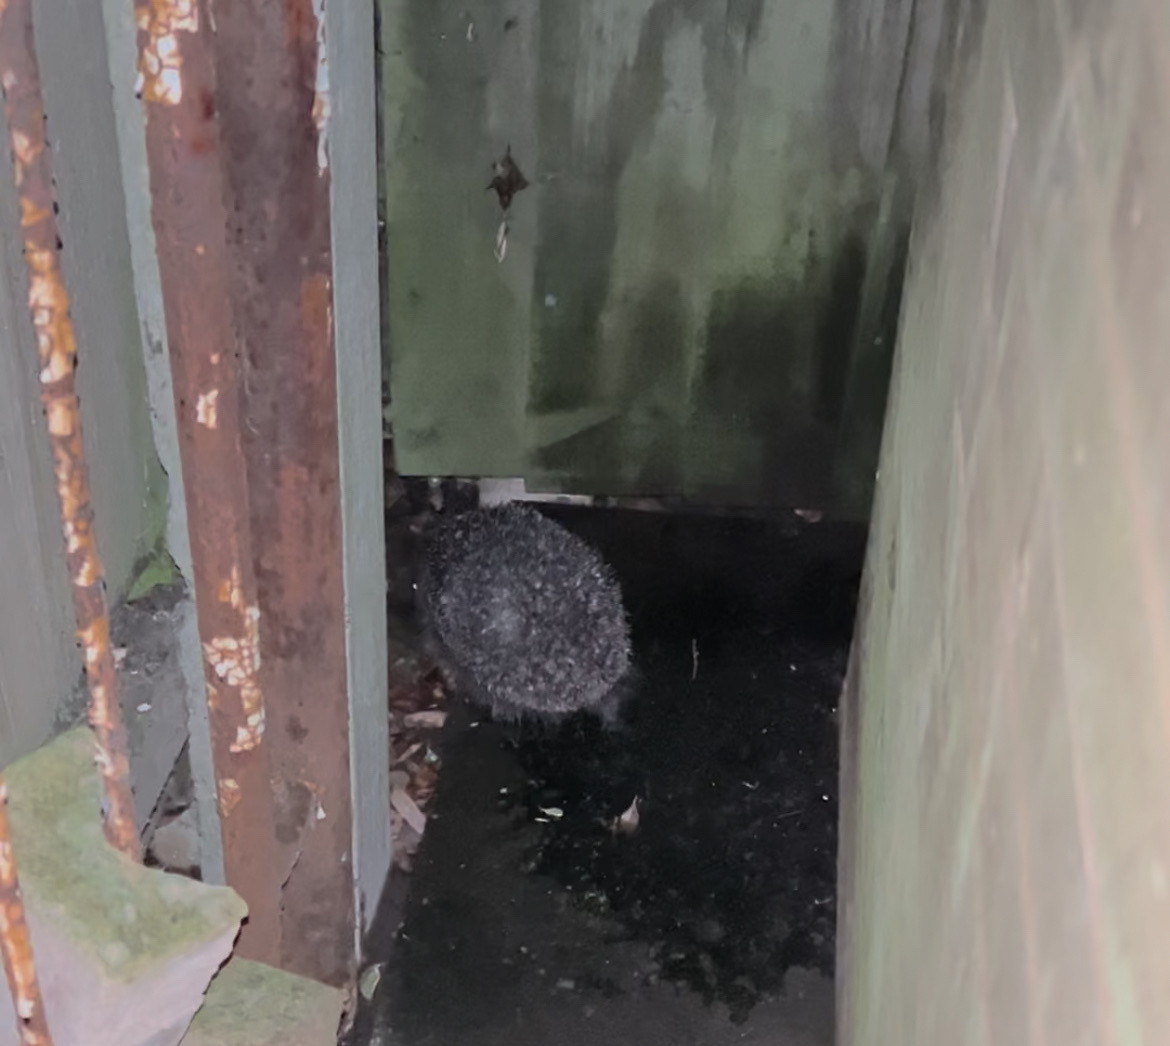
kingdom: Animalia
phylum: Chordata
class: Mammalia
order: Erinaceomorpha
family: Erinaceidae
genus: Erinaceus
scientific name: Erinaceus europaeus
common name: West european hedgehog
